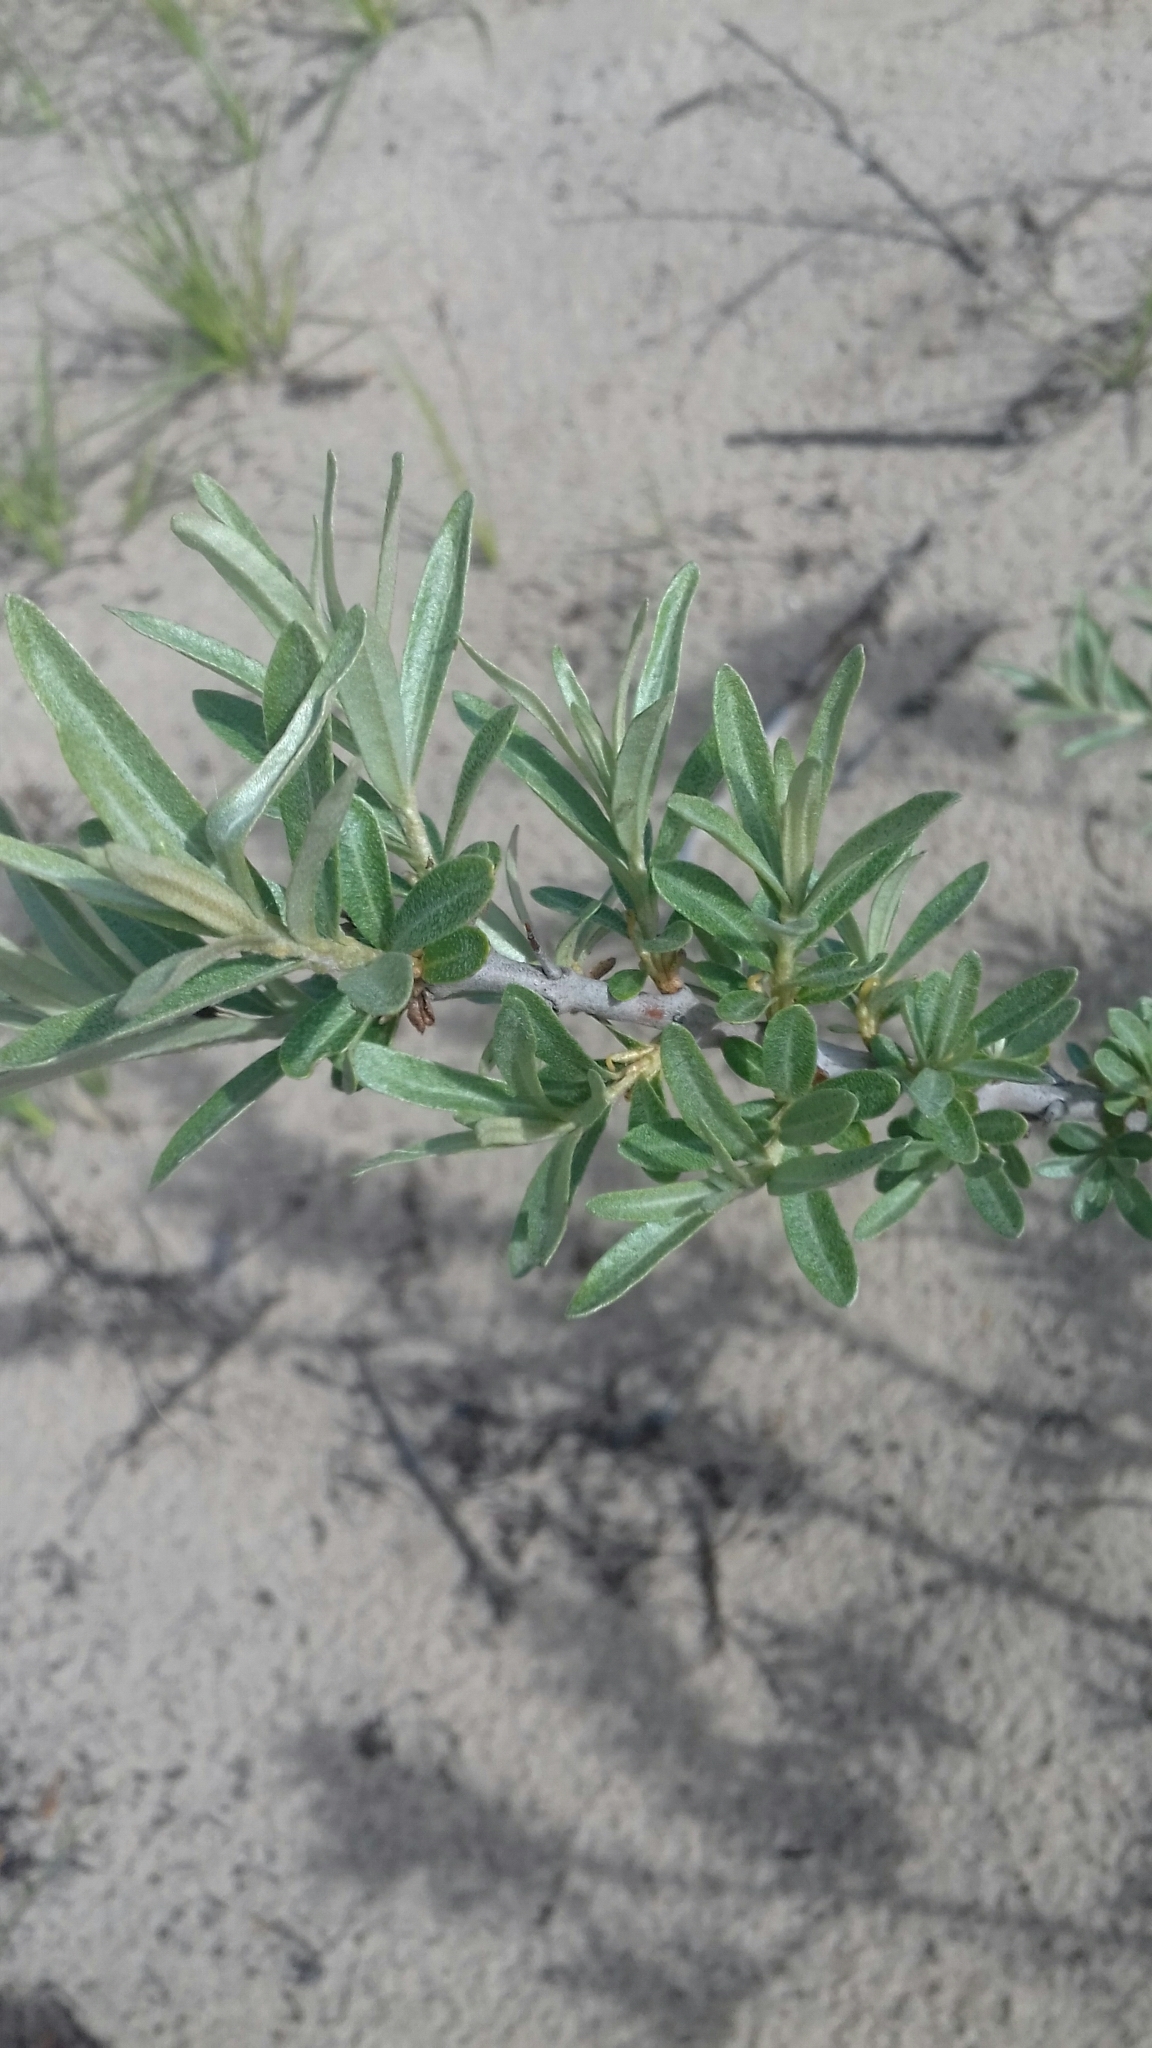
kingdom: Plantae
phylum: Tracheophyta
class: Magnoliopsida
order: Rosales
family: Elaeagnaceae
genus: Hippophae
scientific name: Hippophae rhamnoides
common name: Sea-buckthorn
